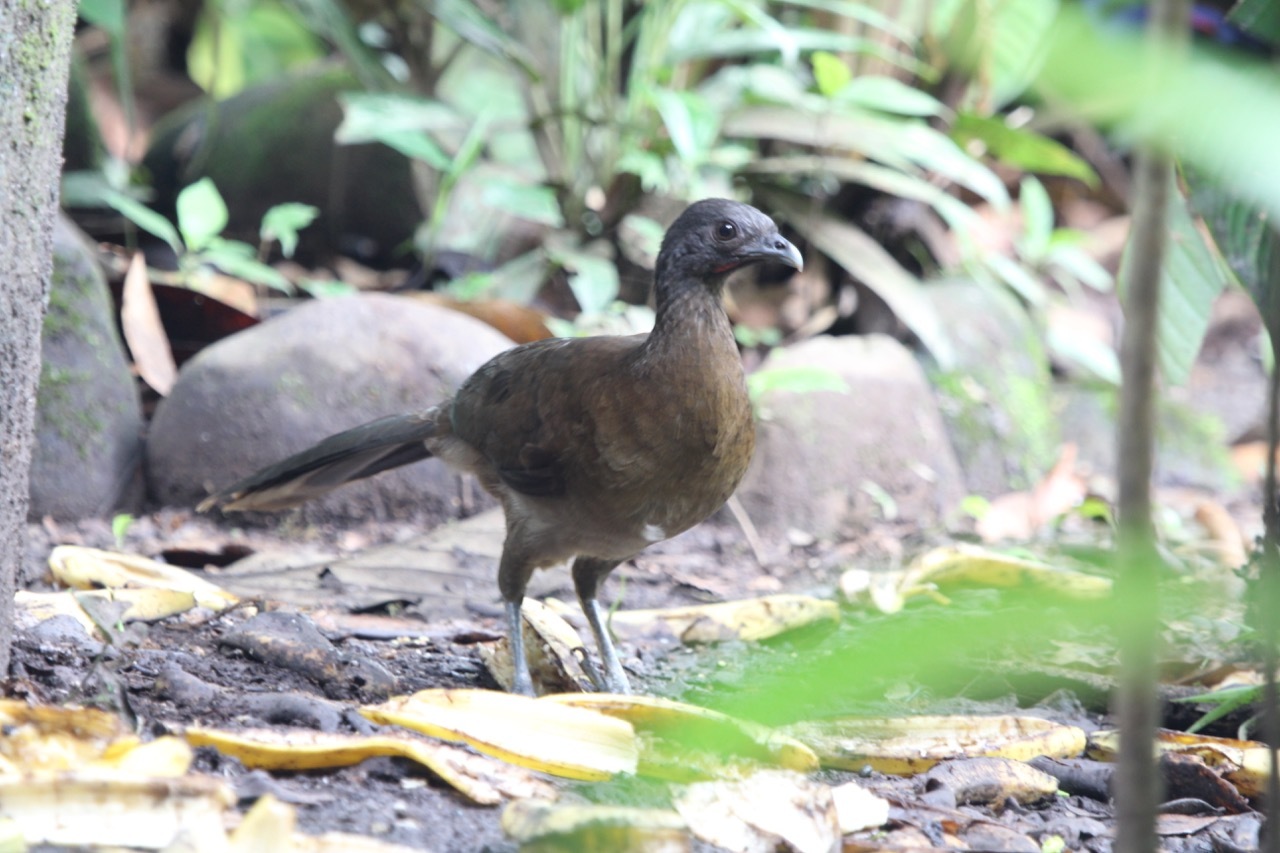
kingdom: Animalia
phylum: Chordata
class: Aves
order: Galliformes
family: Cracidae
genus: Ortalis
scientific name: Ortalis cinereiceps
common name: Grey-headed chachalaca
